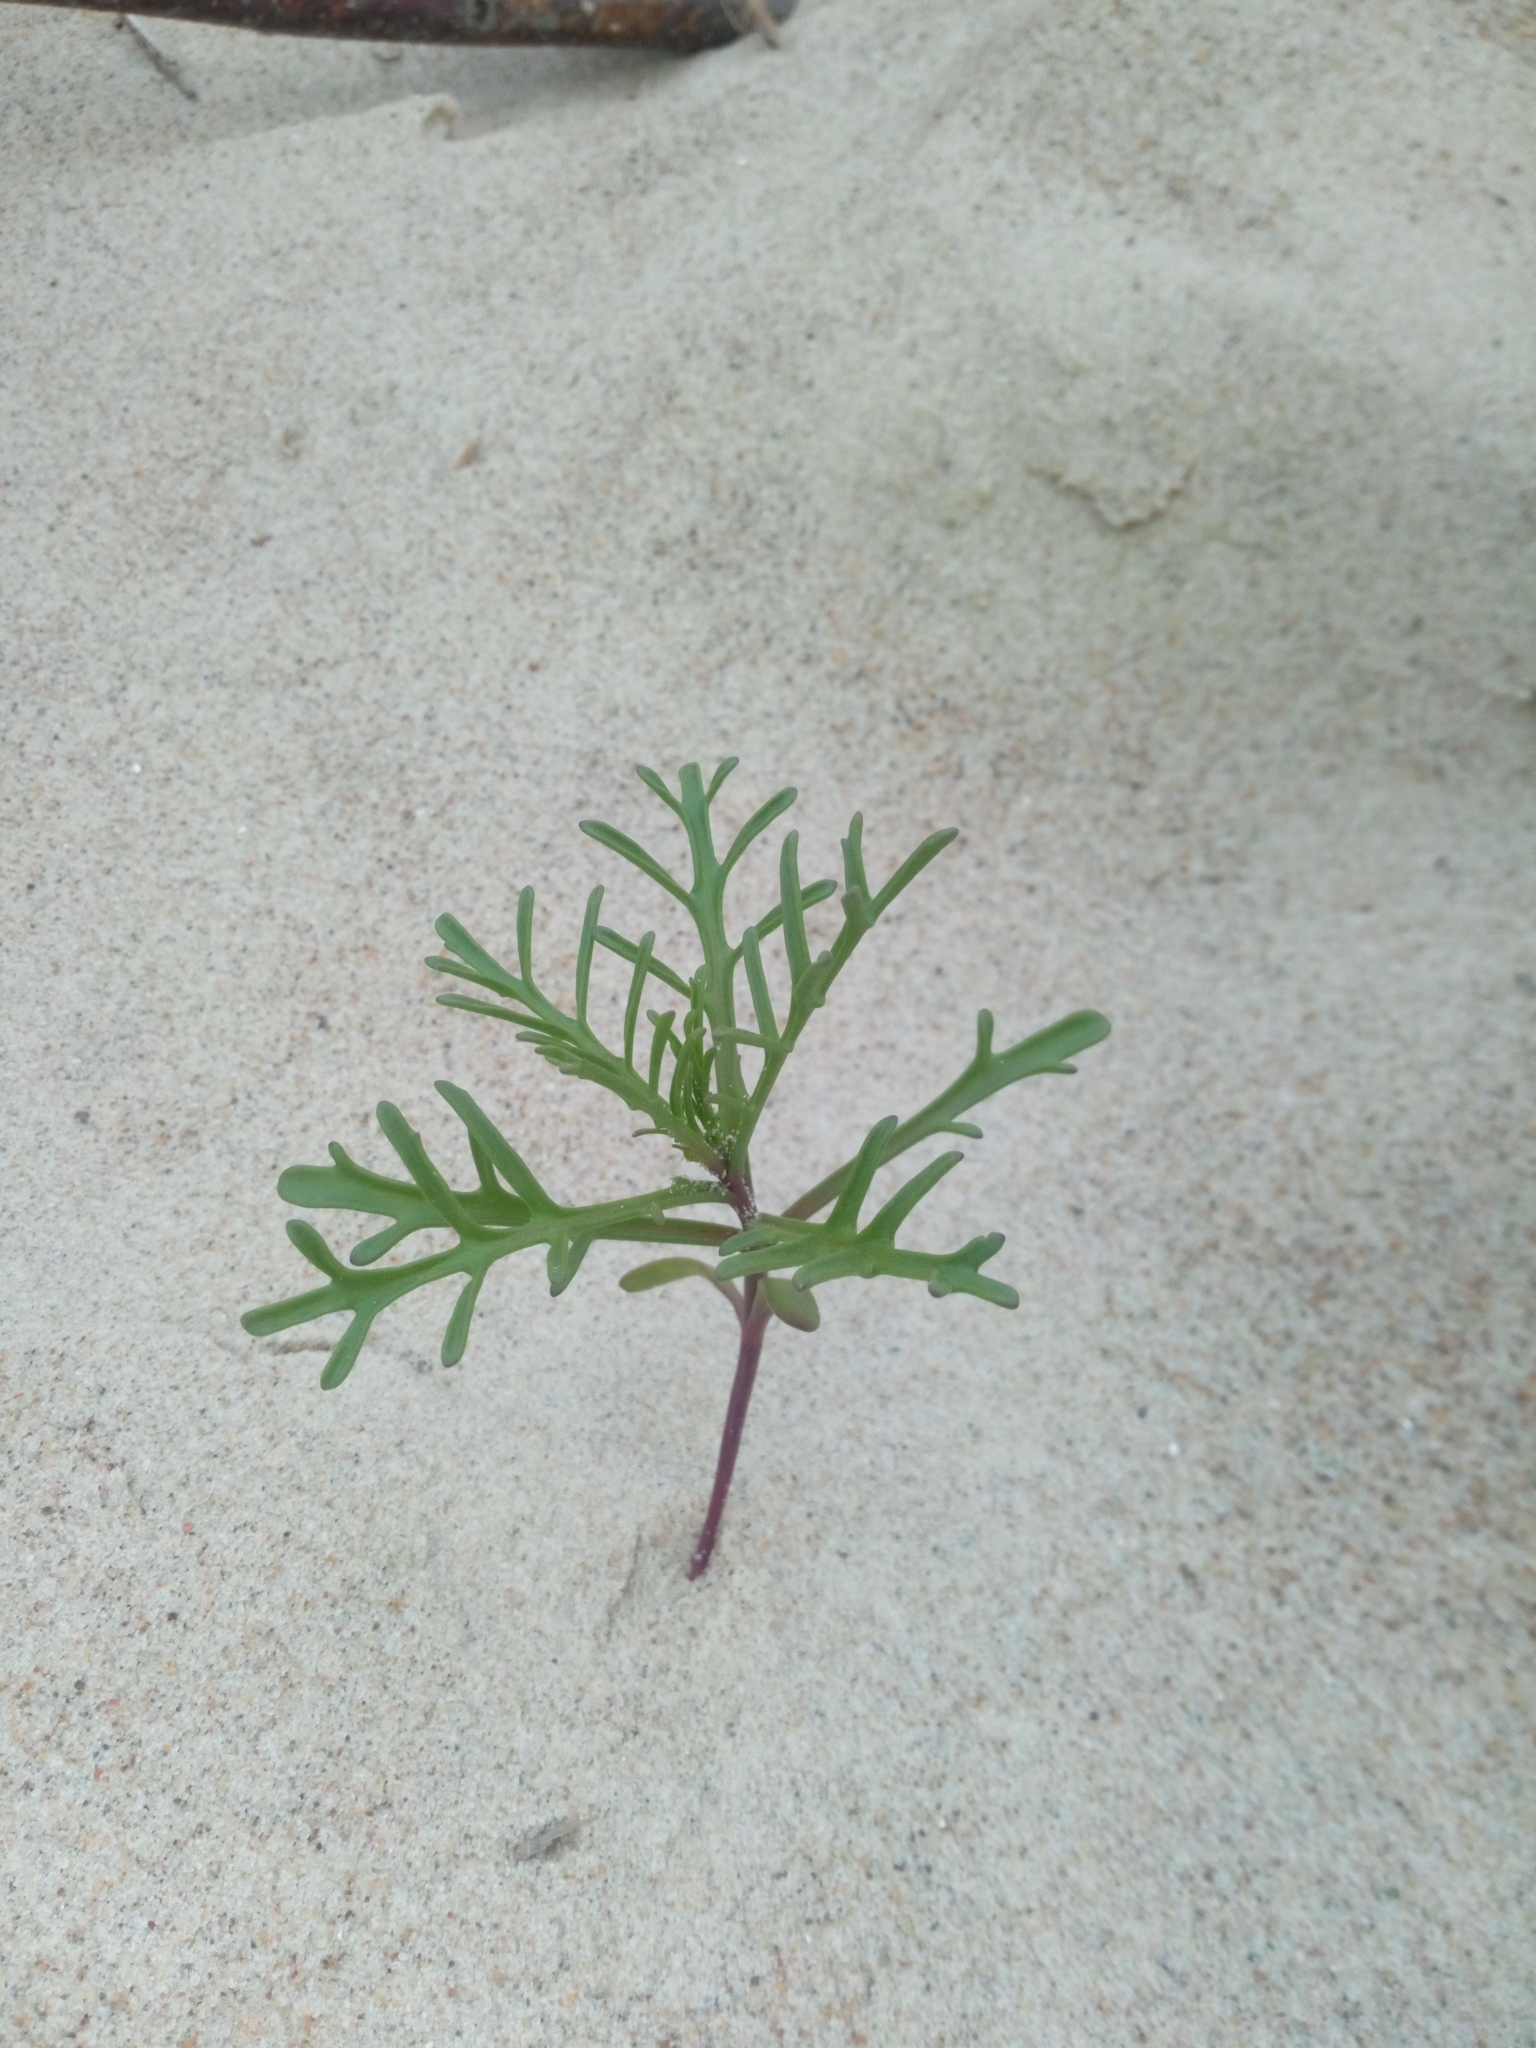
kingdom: Plantae
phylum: Tracheophyta
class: Magnoliopsida
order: Brassicales
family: Brassicaceae
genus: Cakile
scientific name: Cakile maritima
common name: Sea rocket
